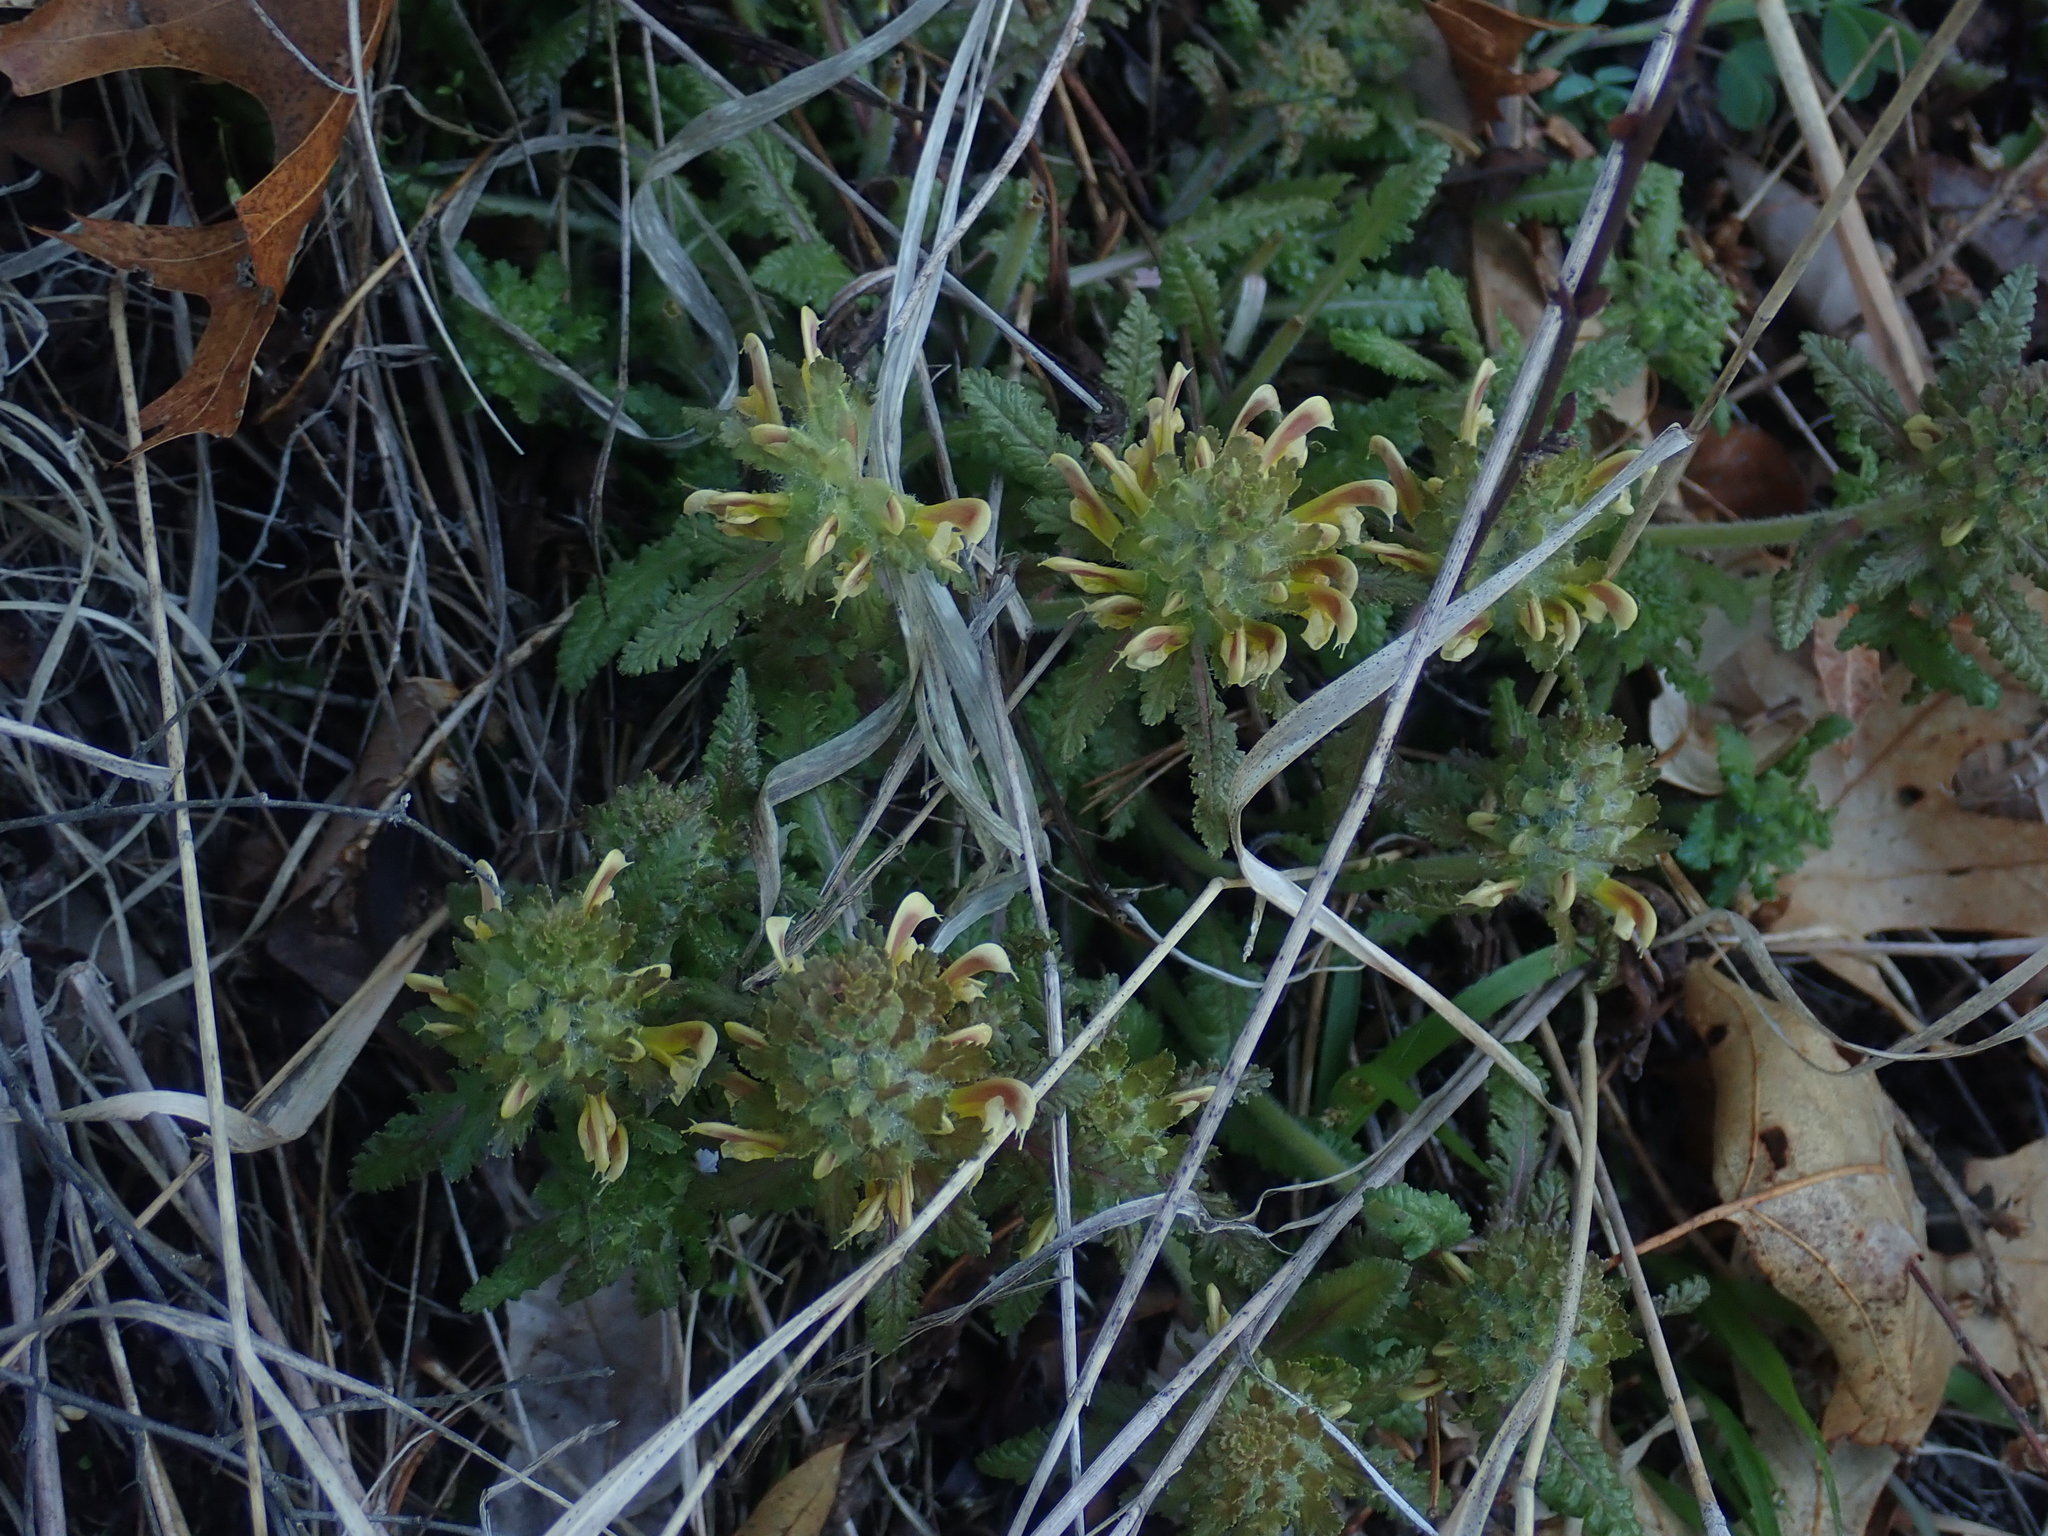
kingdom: Plantae
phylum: Tracheophyta
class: Magnoliopsida
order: Lamiales
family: Orobanchaceae
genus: Pedicularis
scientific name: Pedicularis canadensis
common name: Early lousewort
